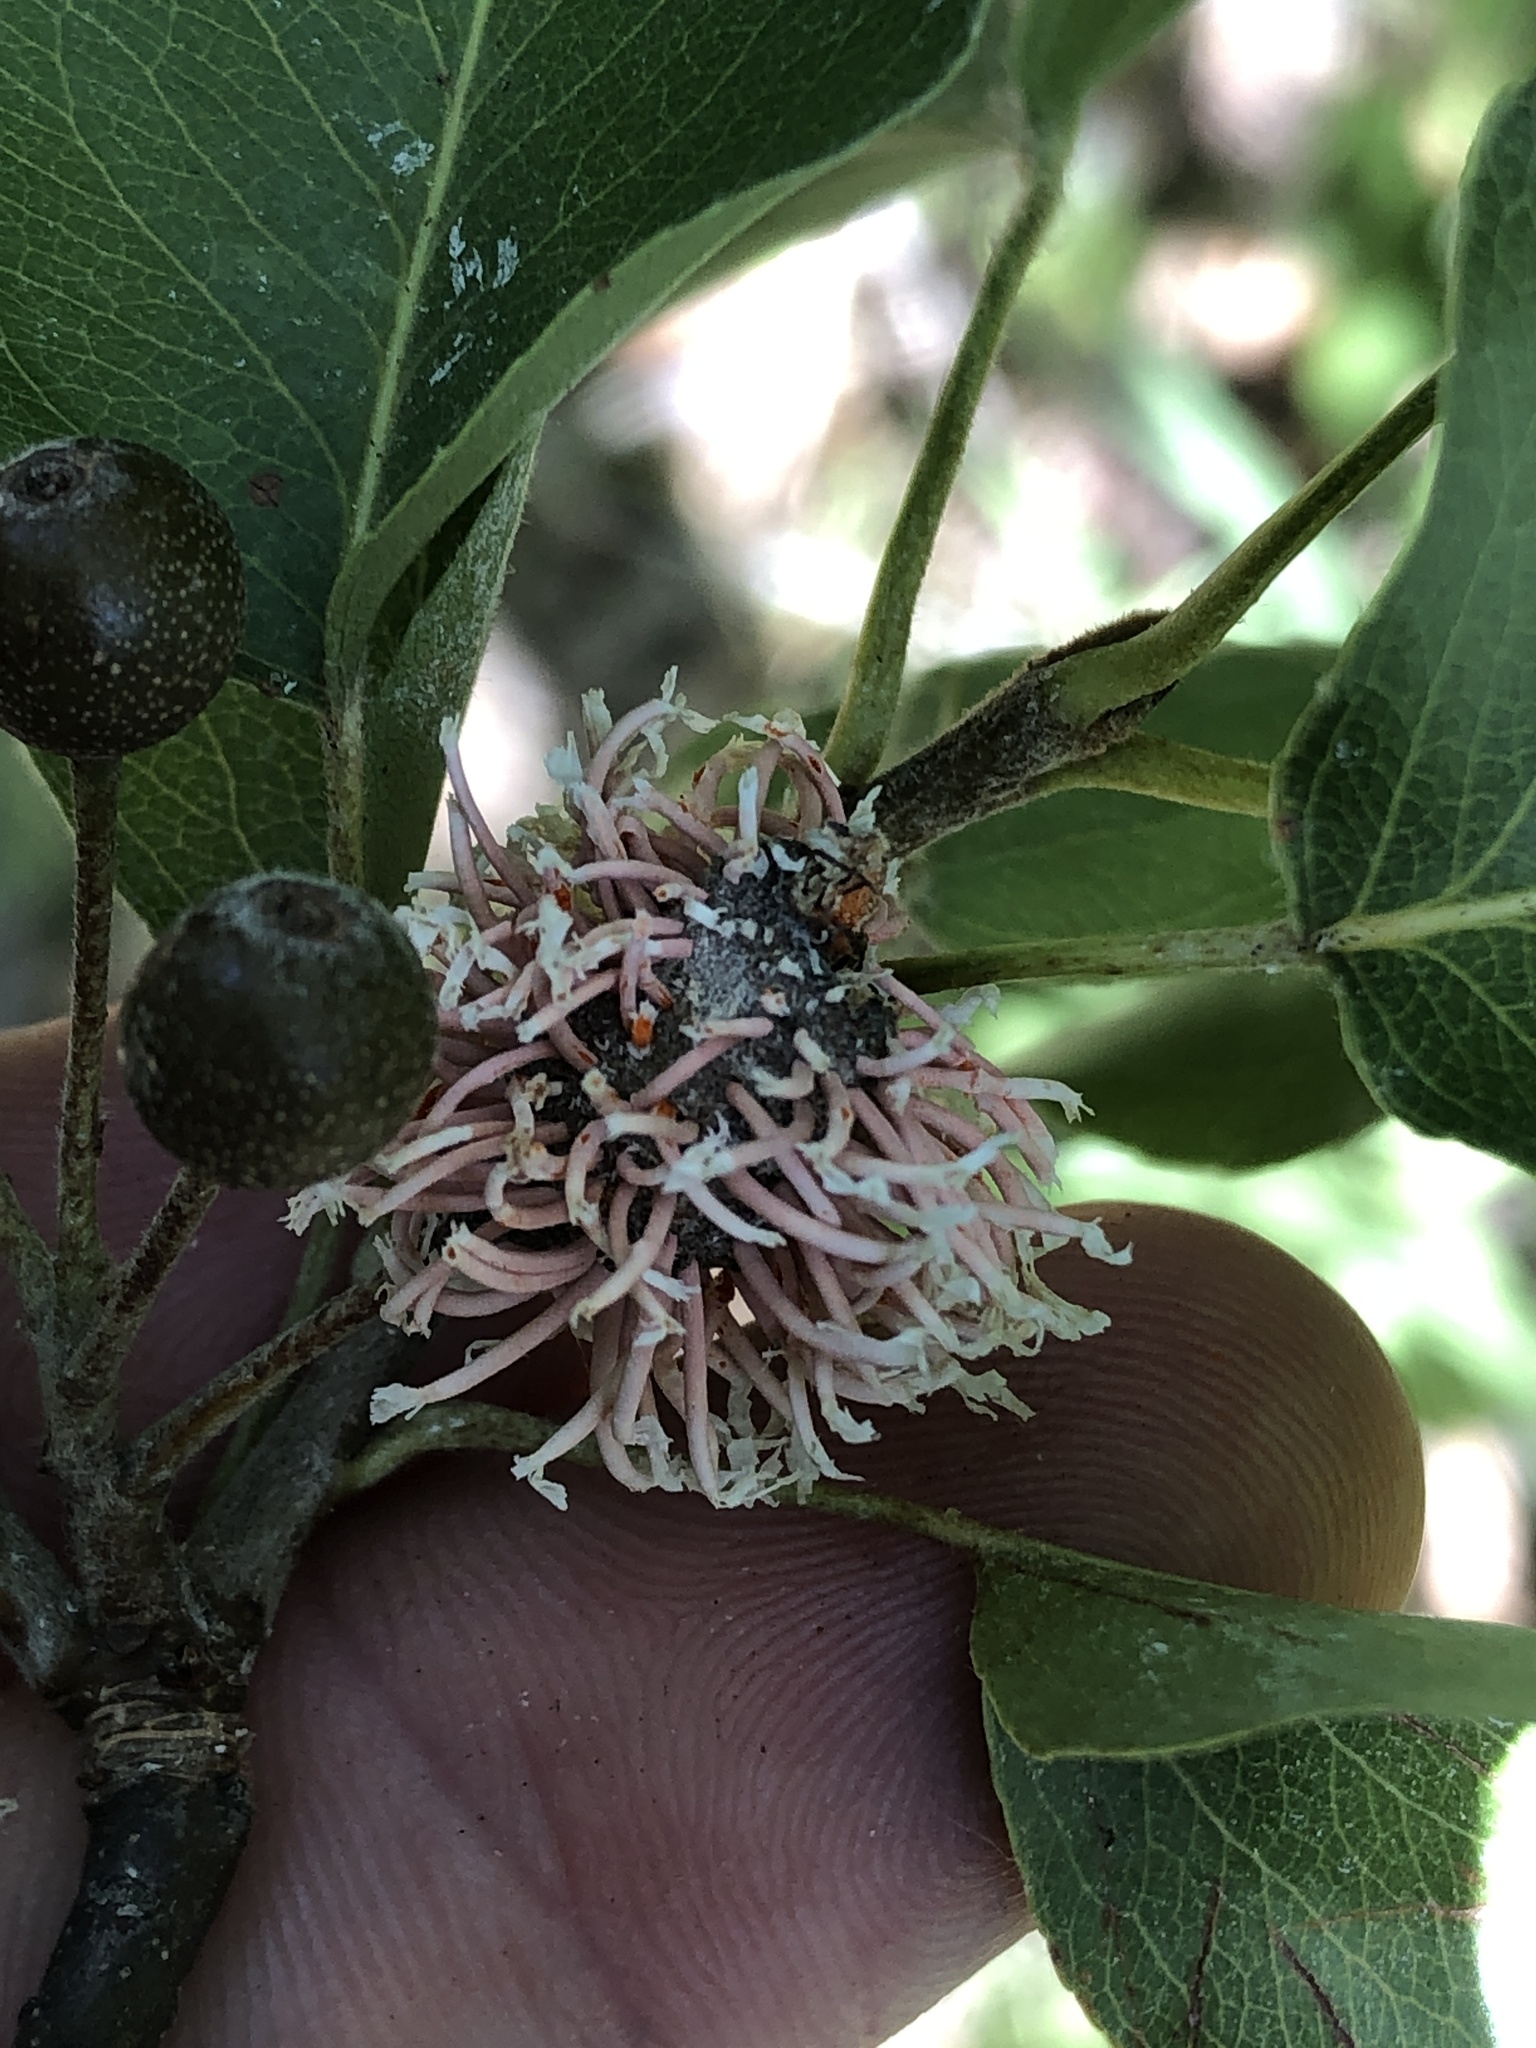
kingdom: Fungi
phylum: Basidiomycota
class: Pucciniomycetes
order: Pucciniales
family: Gymnosporangiaceae
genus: Gymnosporangium
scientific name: Gymnosporangium clavipes
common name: Quince rust
